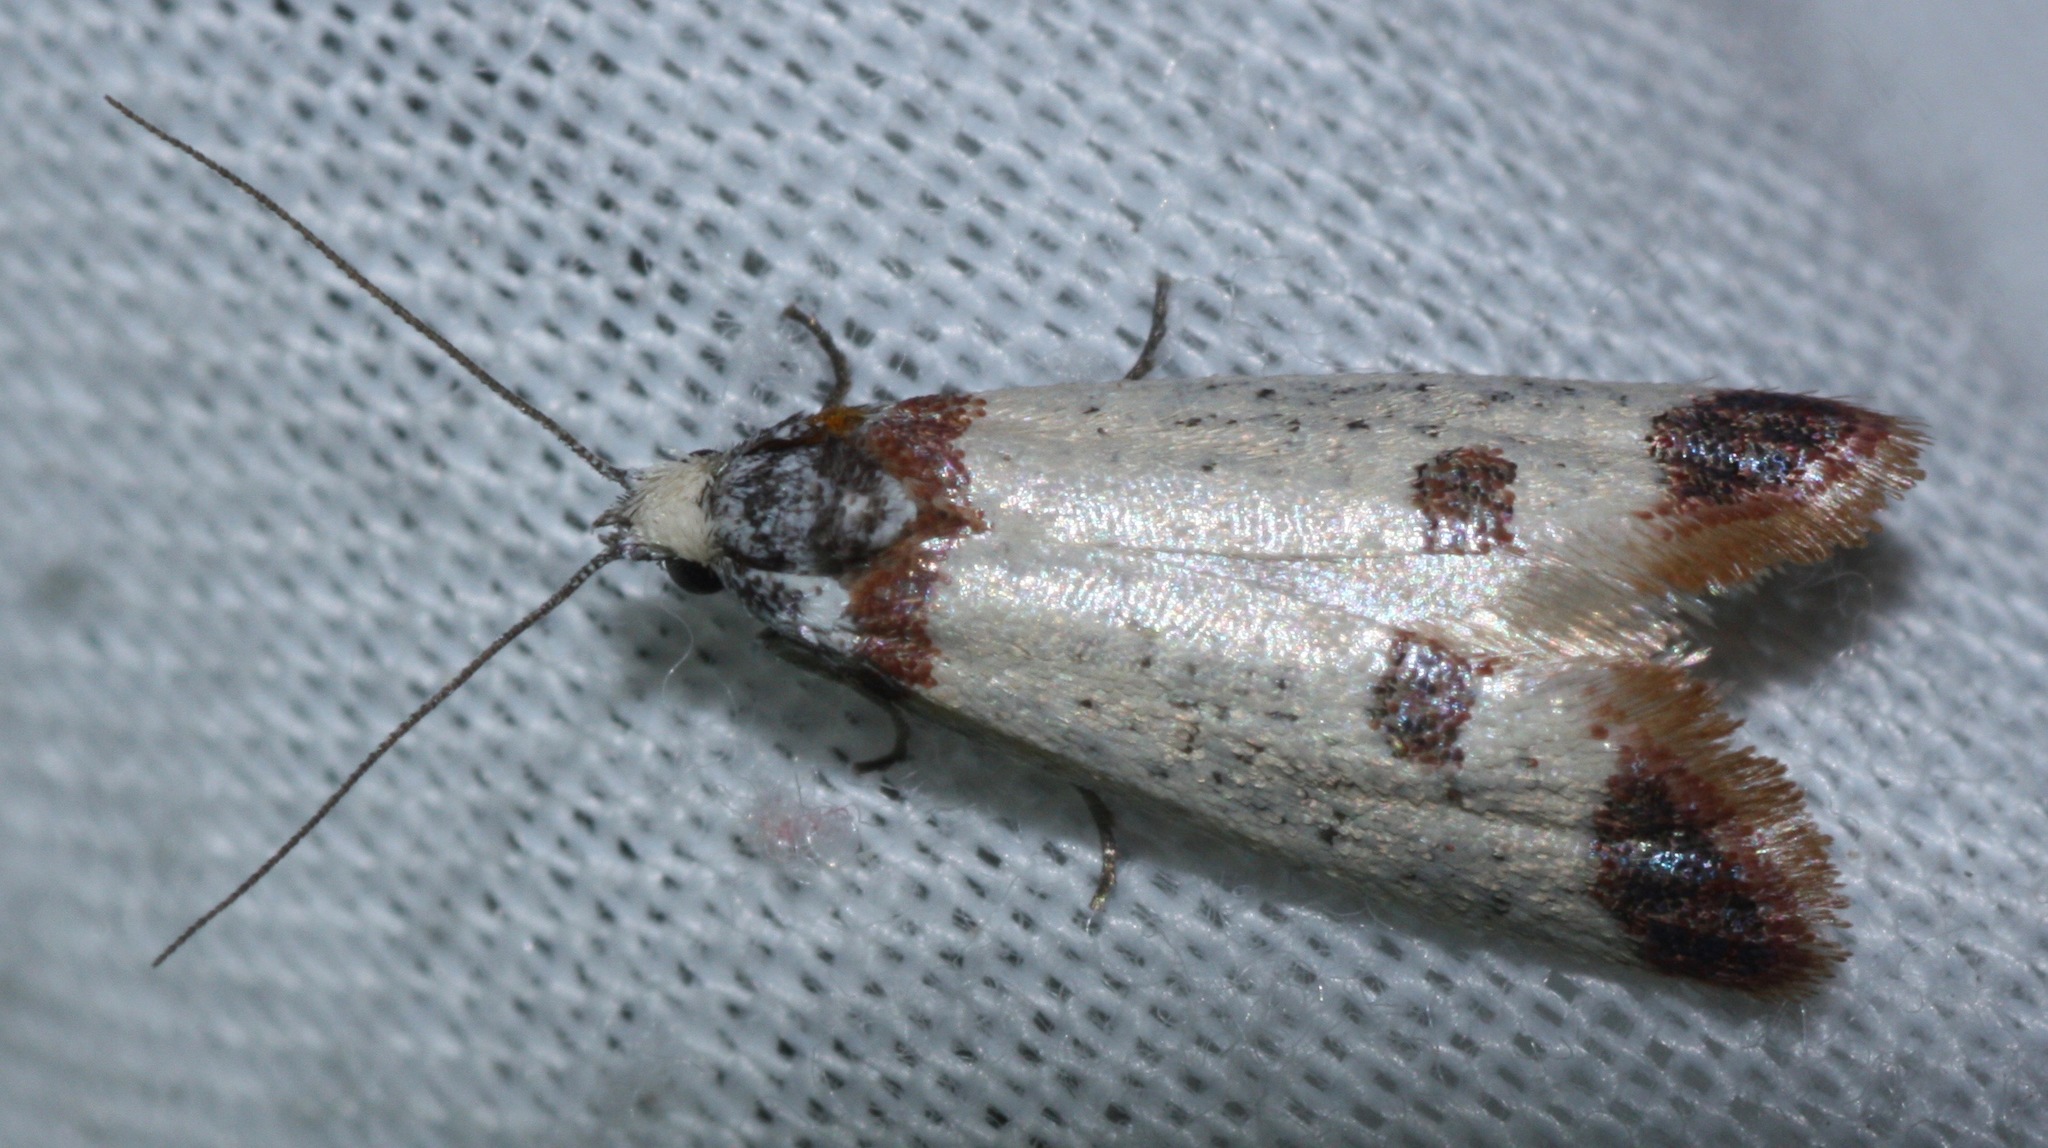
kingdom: Animalia
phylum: Arthropoda
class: Insecta
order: Lepidoptera
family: Tortricidae
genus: Acroplectis
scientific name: Acroplectis haemanthes
